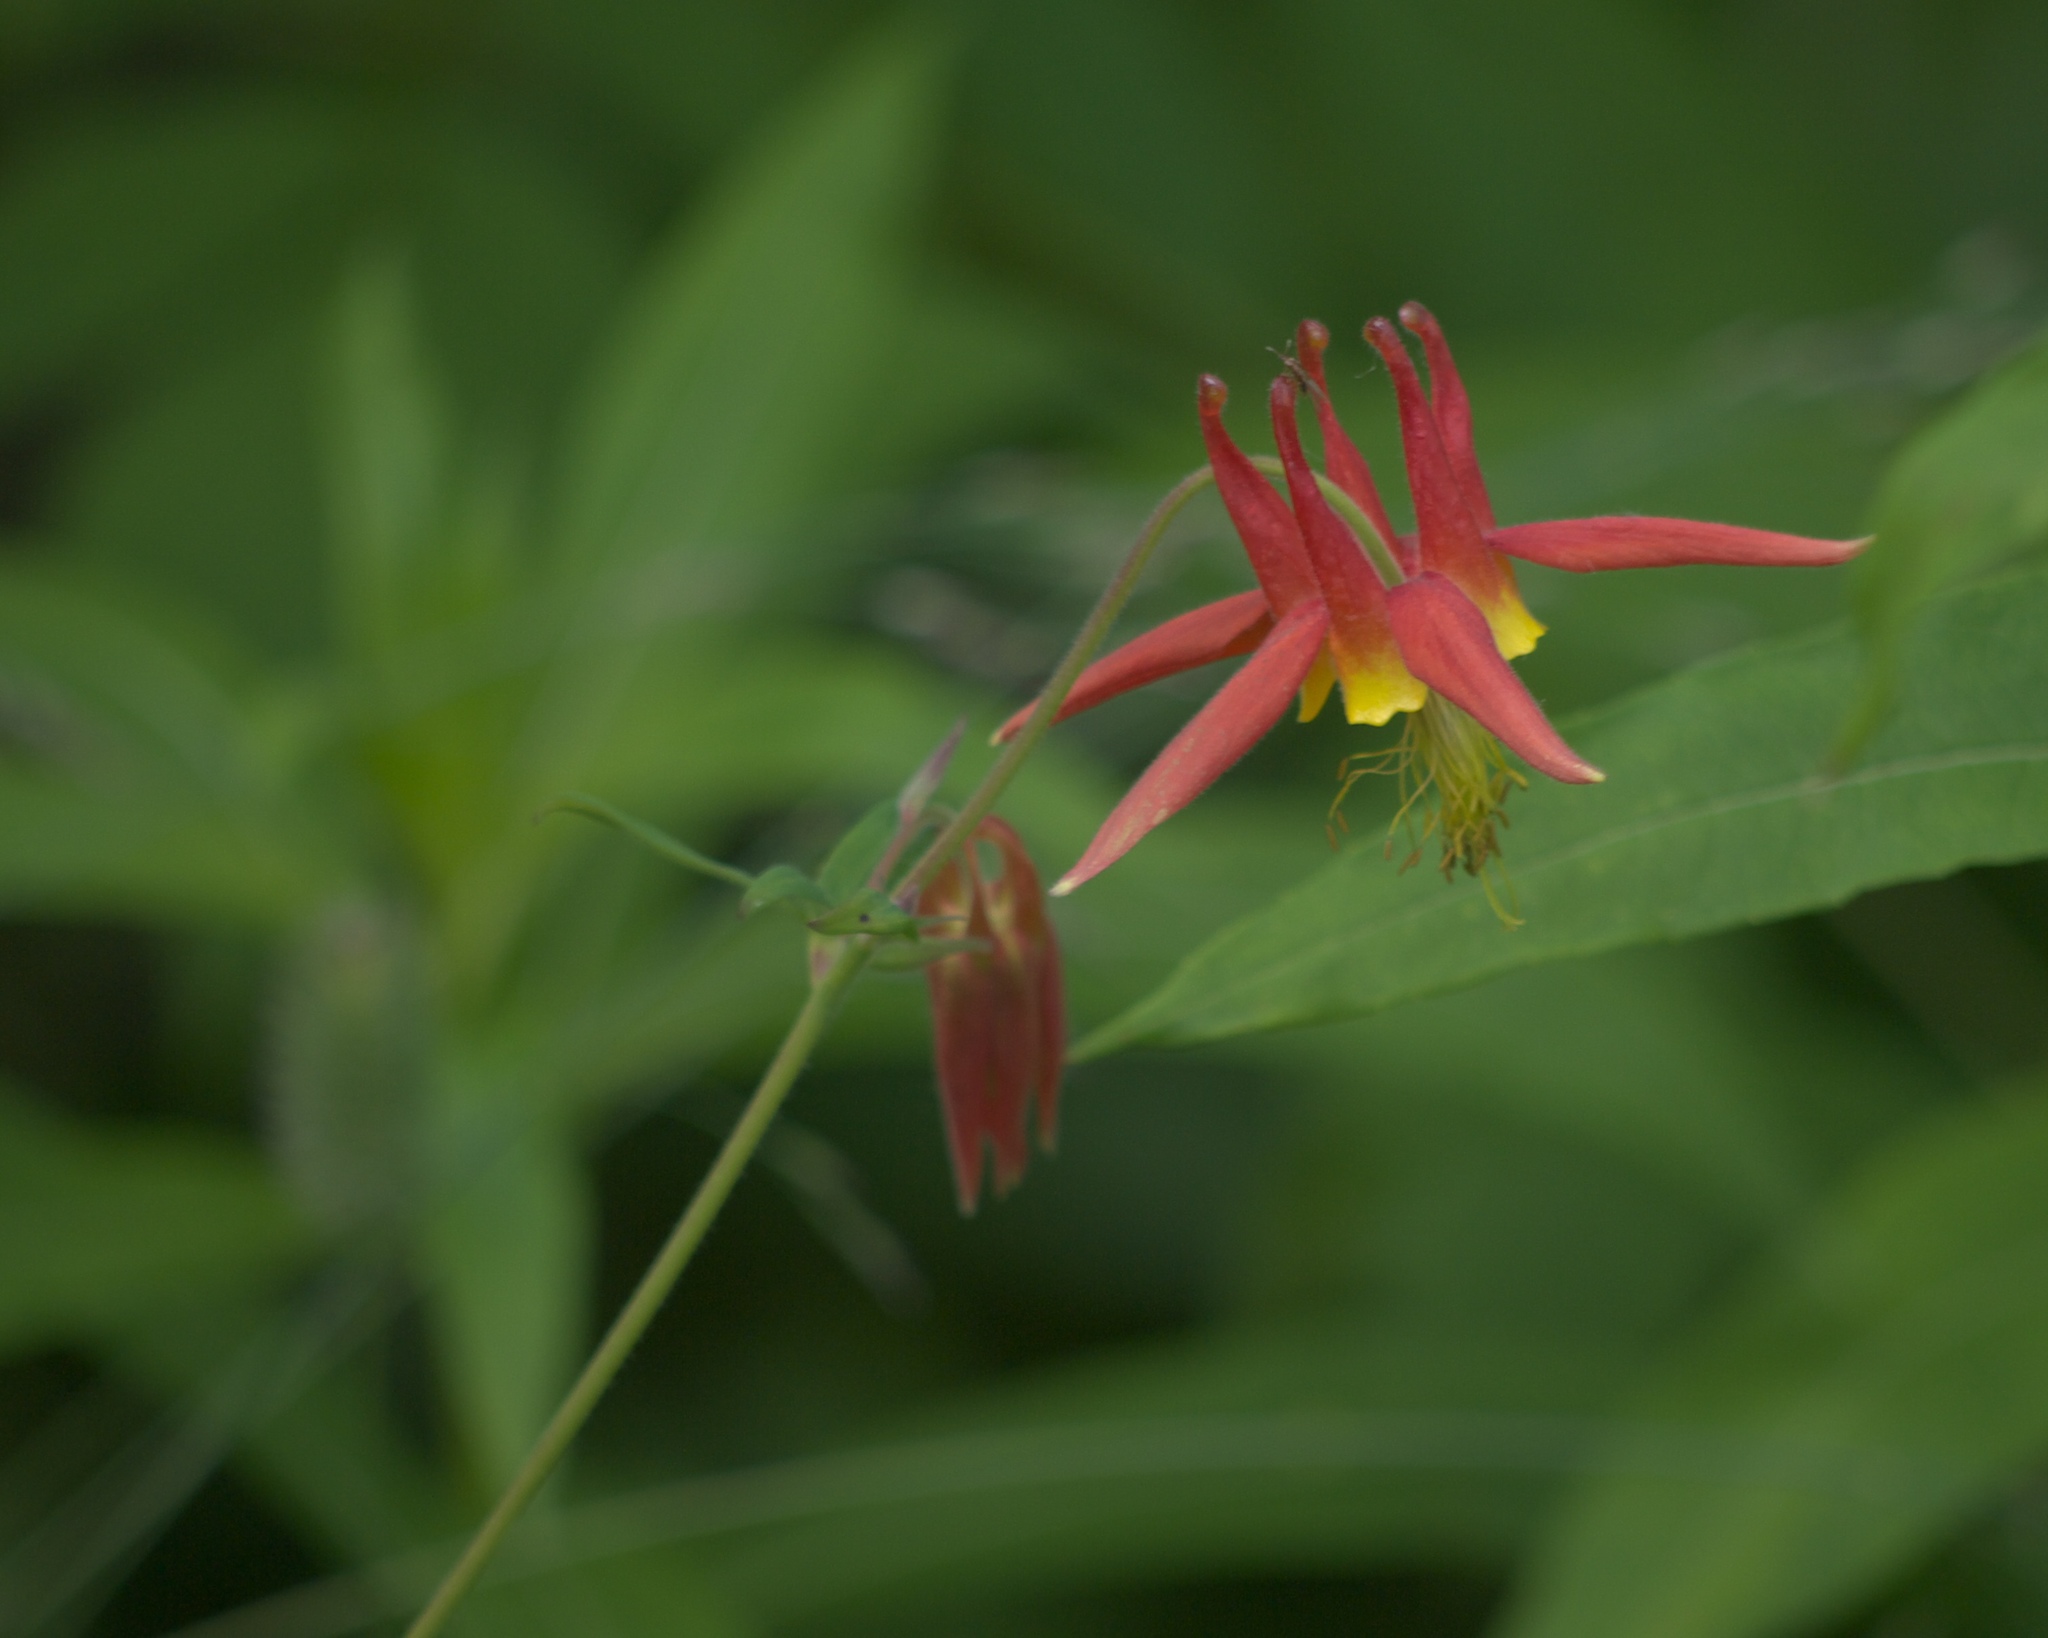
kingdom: Plantae
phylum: Tracheophyta
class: Magnoliopsida
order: Ranunculales
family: Ranunculaceae
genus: Aquilegia
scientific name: Aquilegia formosa
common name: Sitka columbine
